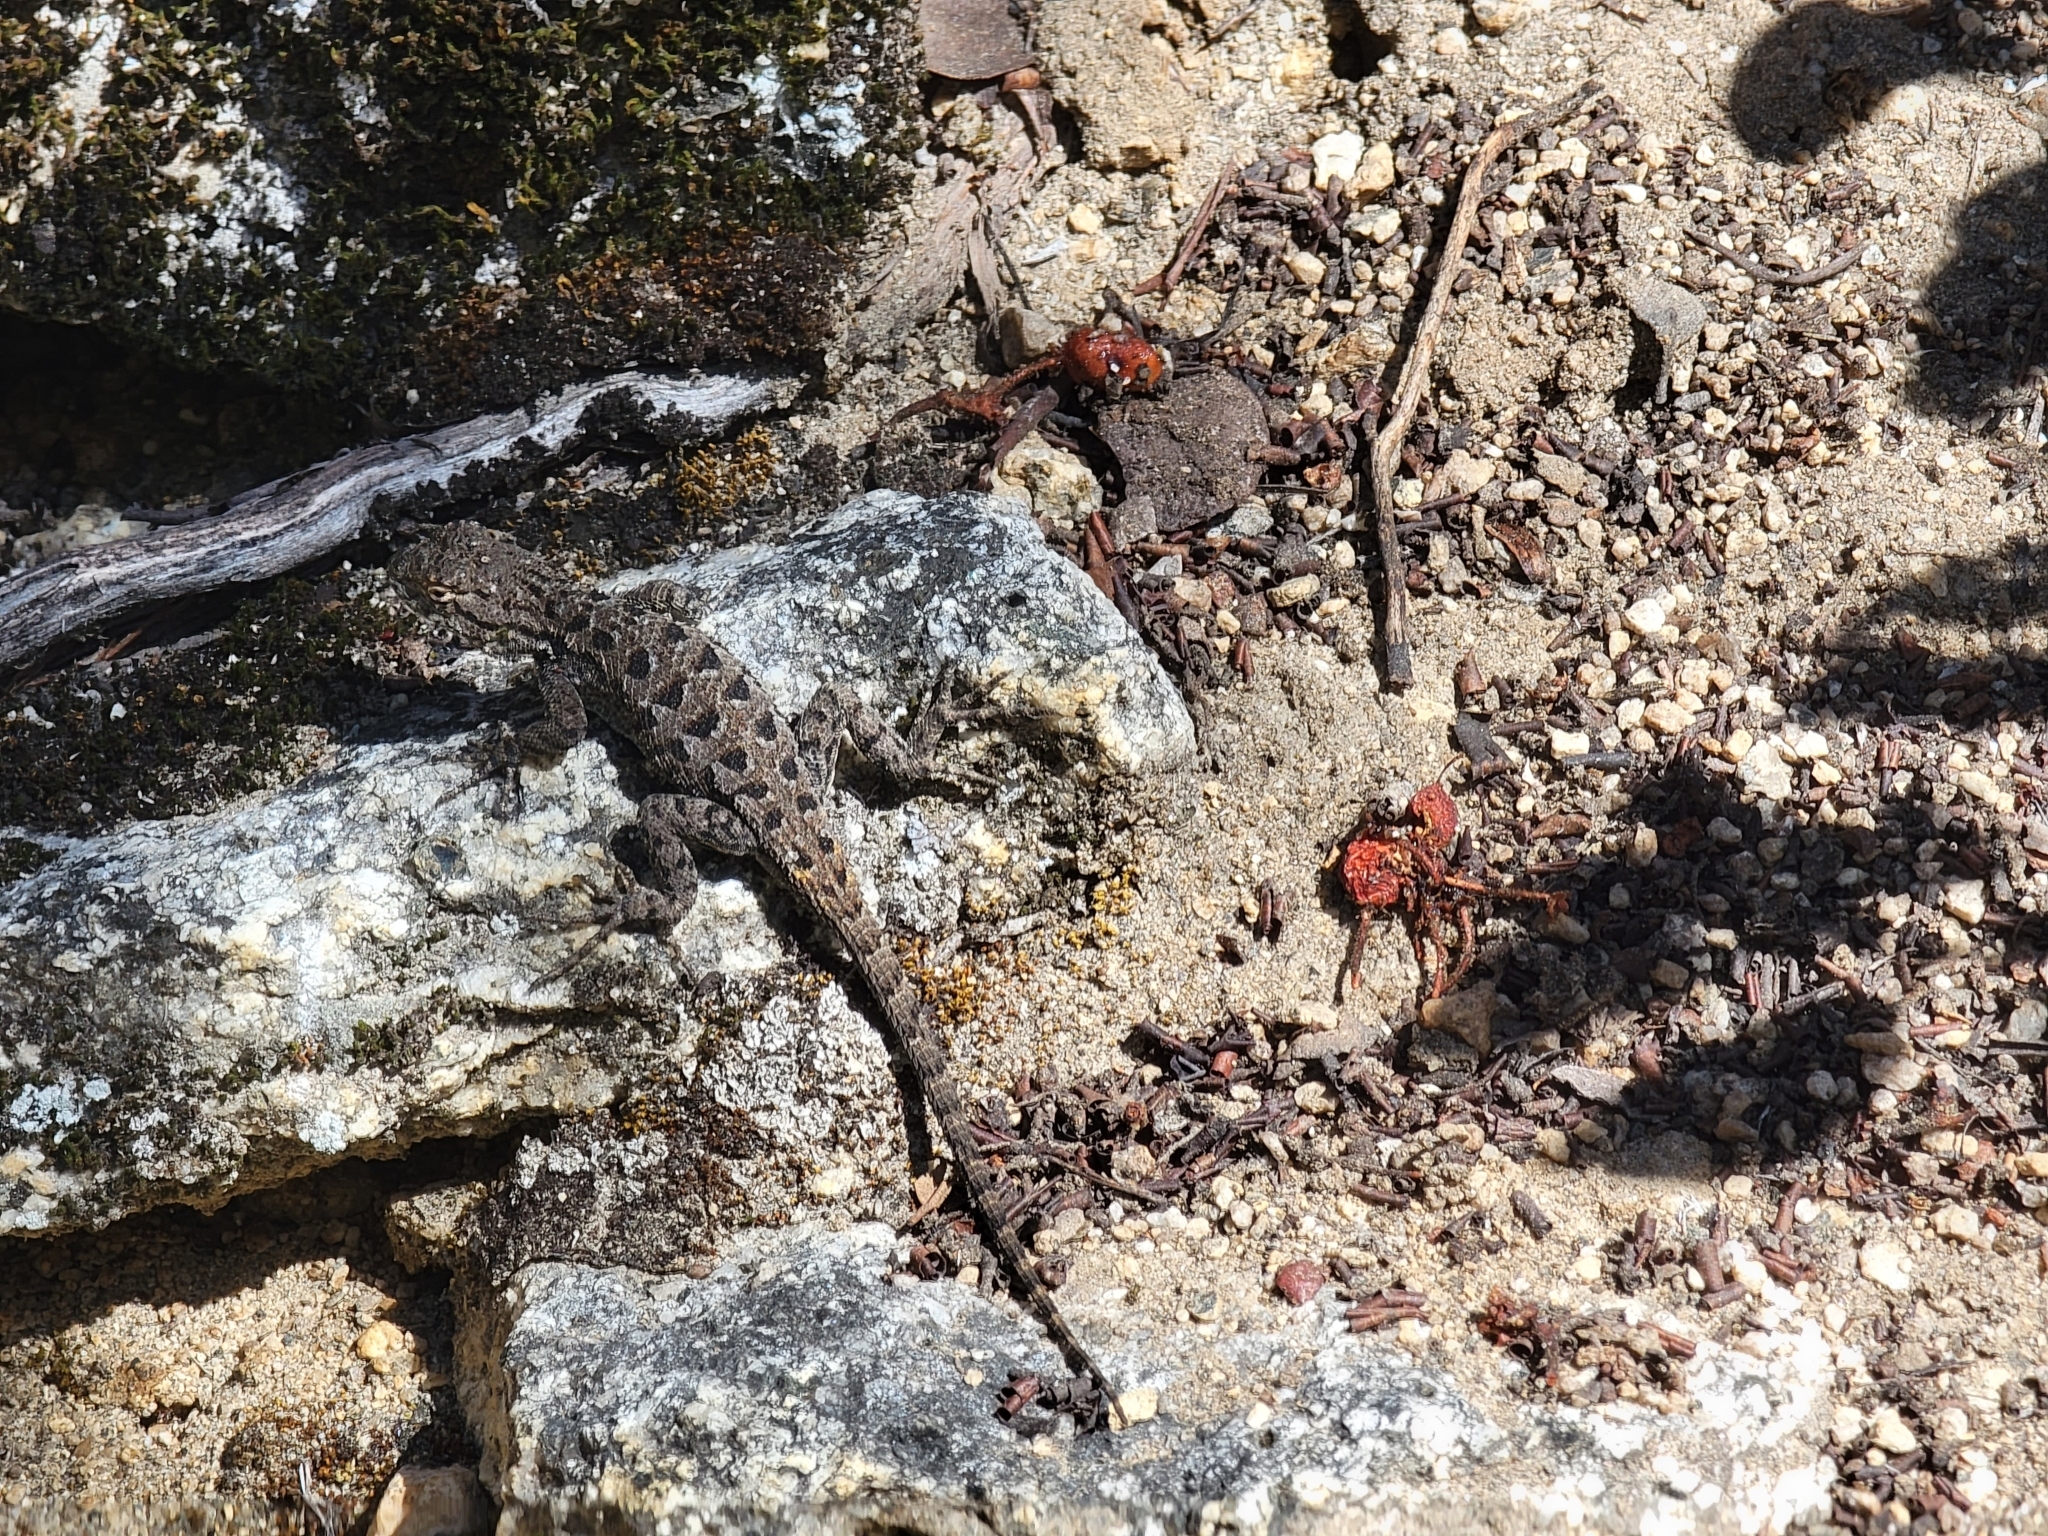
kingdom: Animalia
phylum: Chordata
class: Squamata
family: Phrynosomatidae
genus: Sceloporus
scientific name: Sceloporus occidentalis
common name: Western fence lizard
